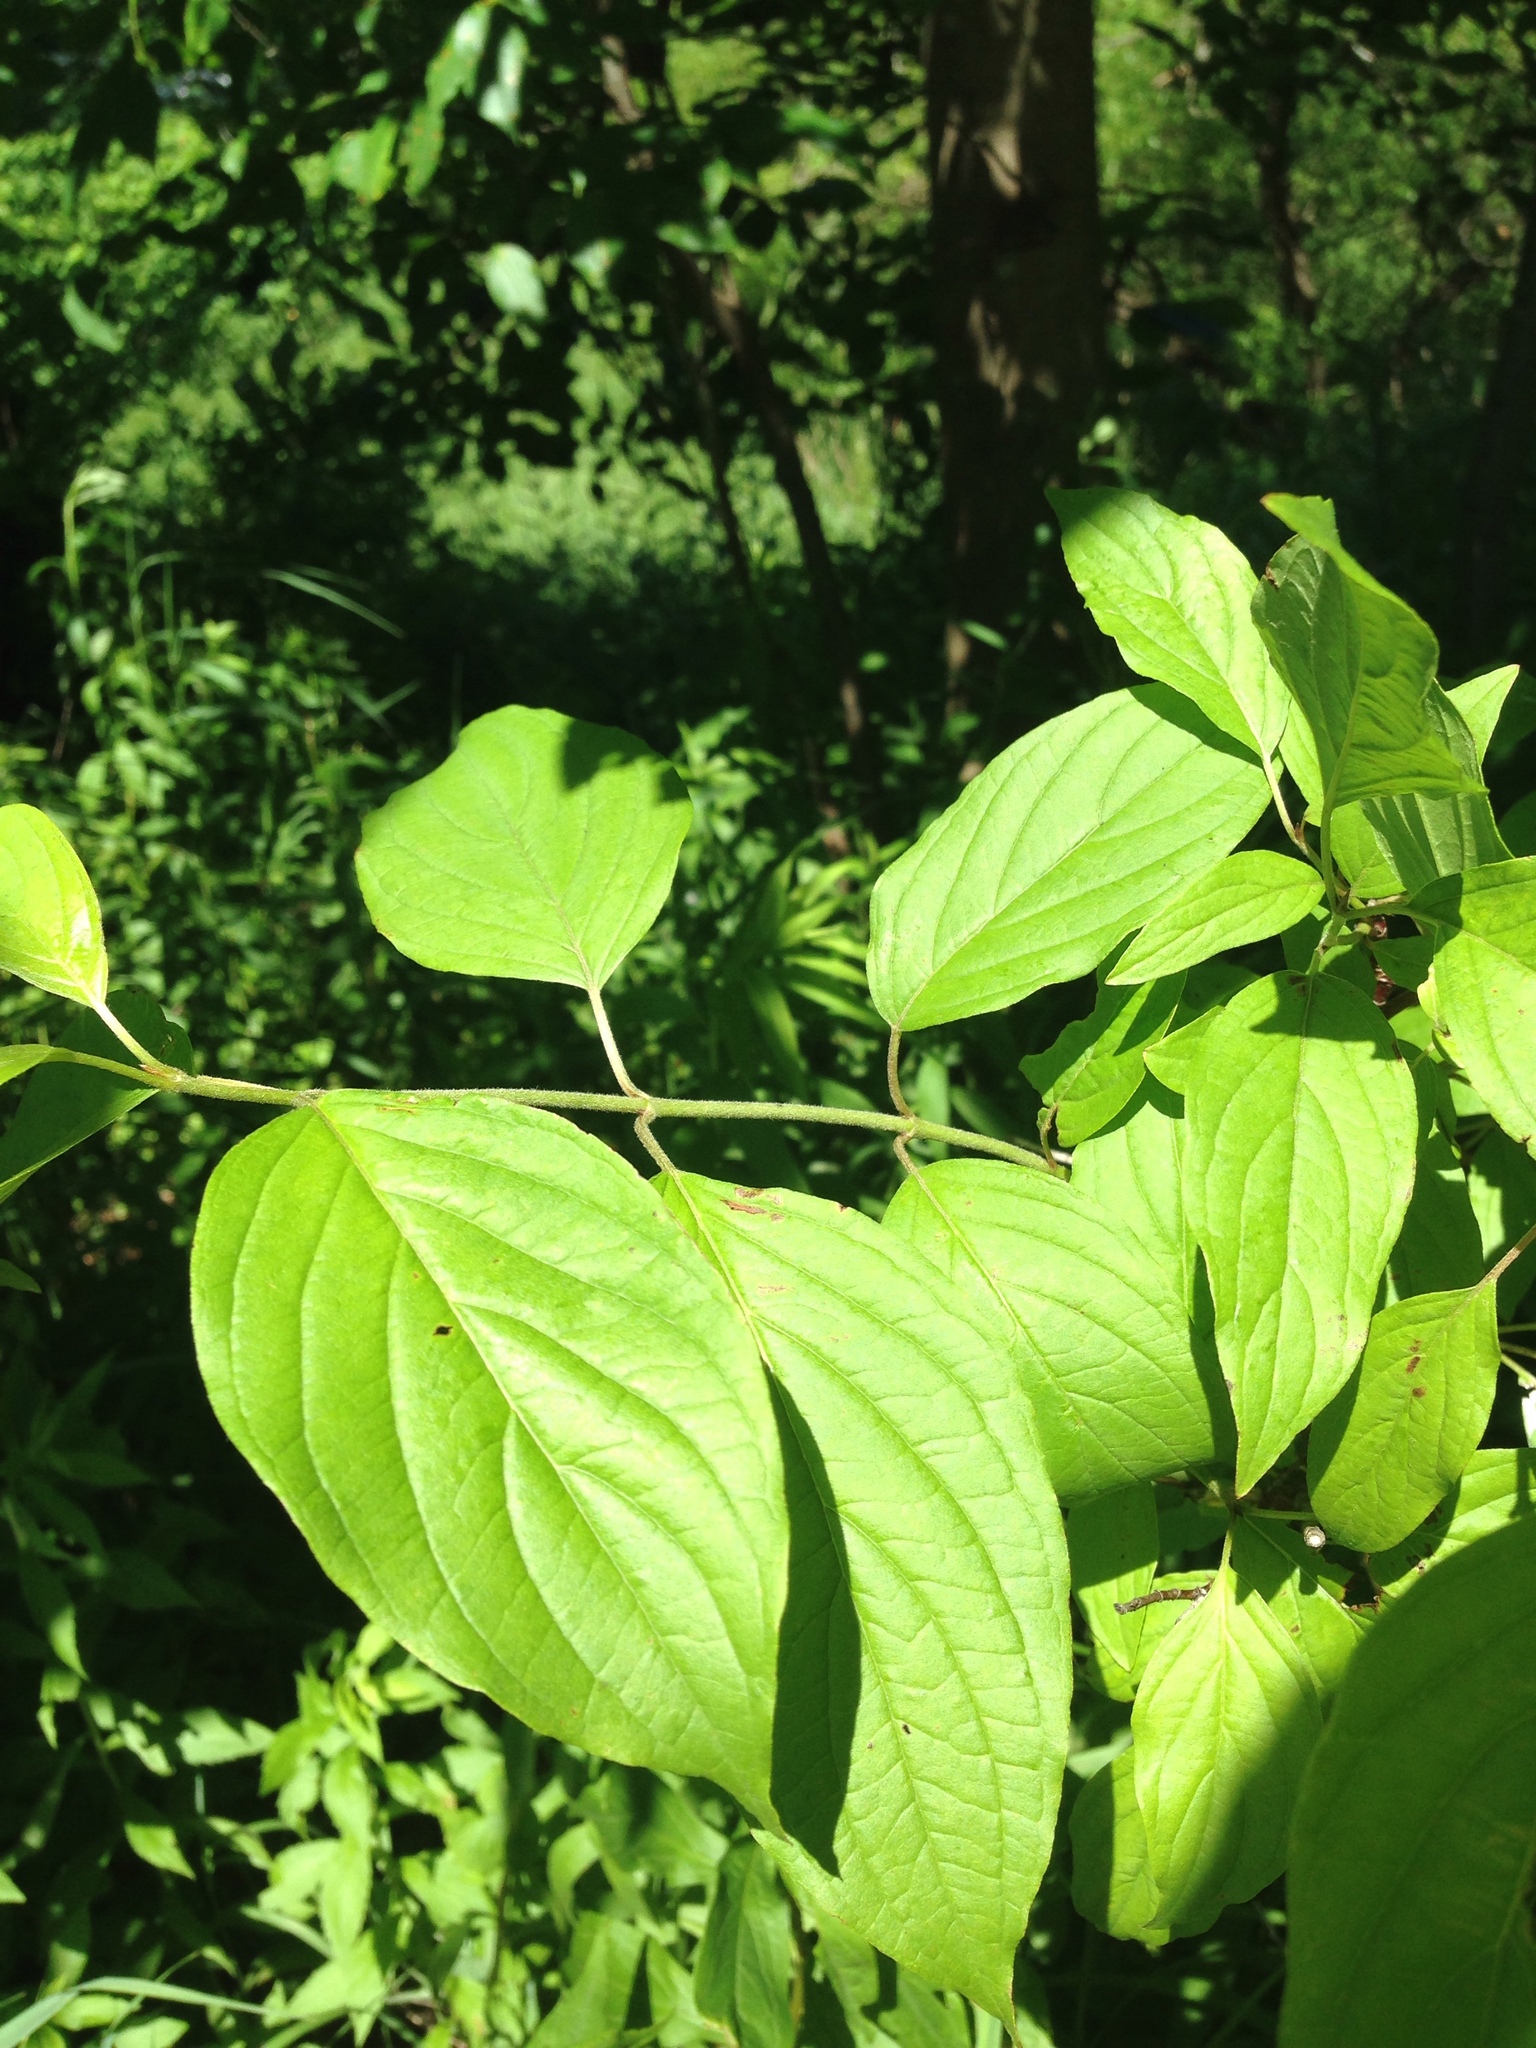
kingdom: Plantae
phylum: Tracheophyta
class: Magnoliopsida
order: Cornales
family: Cornaceae
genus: Cornus
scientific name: Cornus amomum
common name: Silky dogwood
